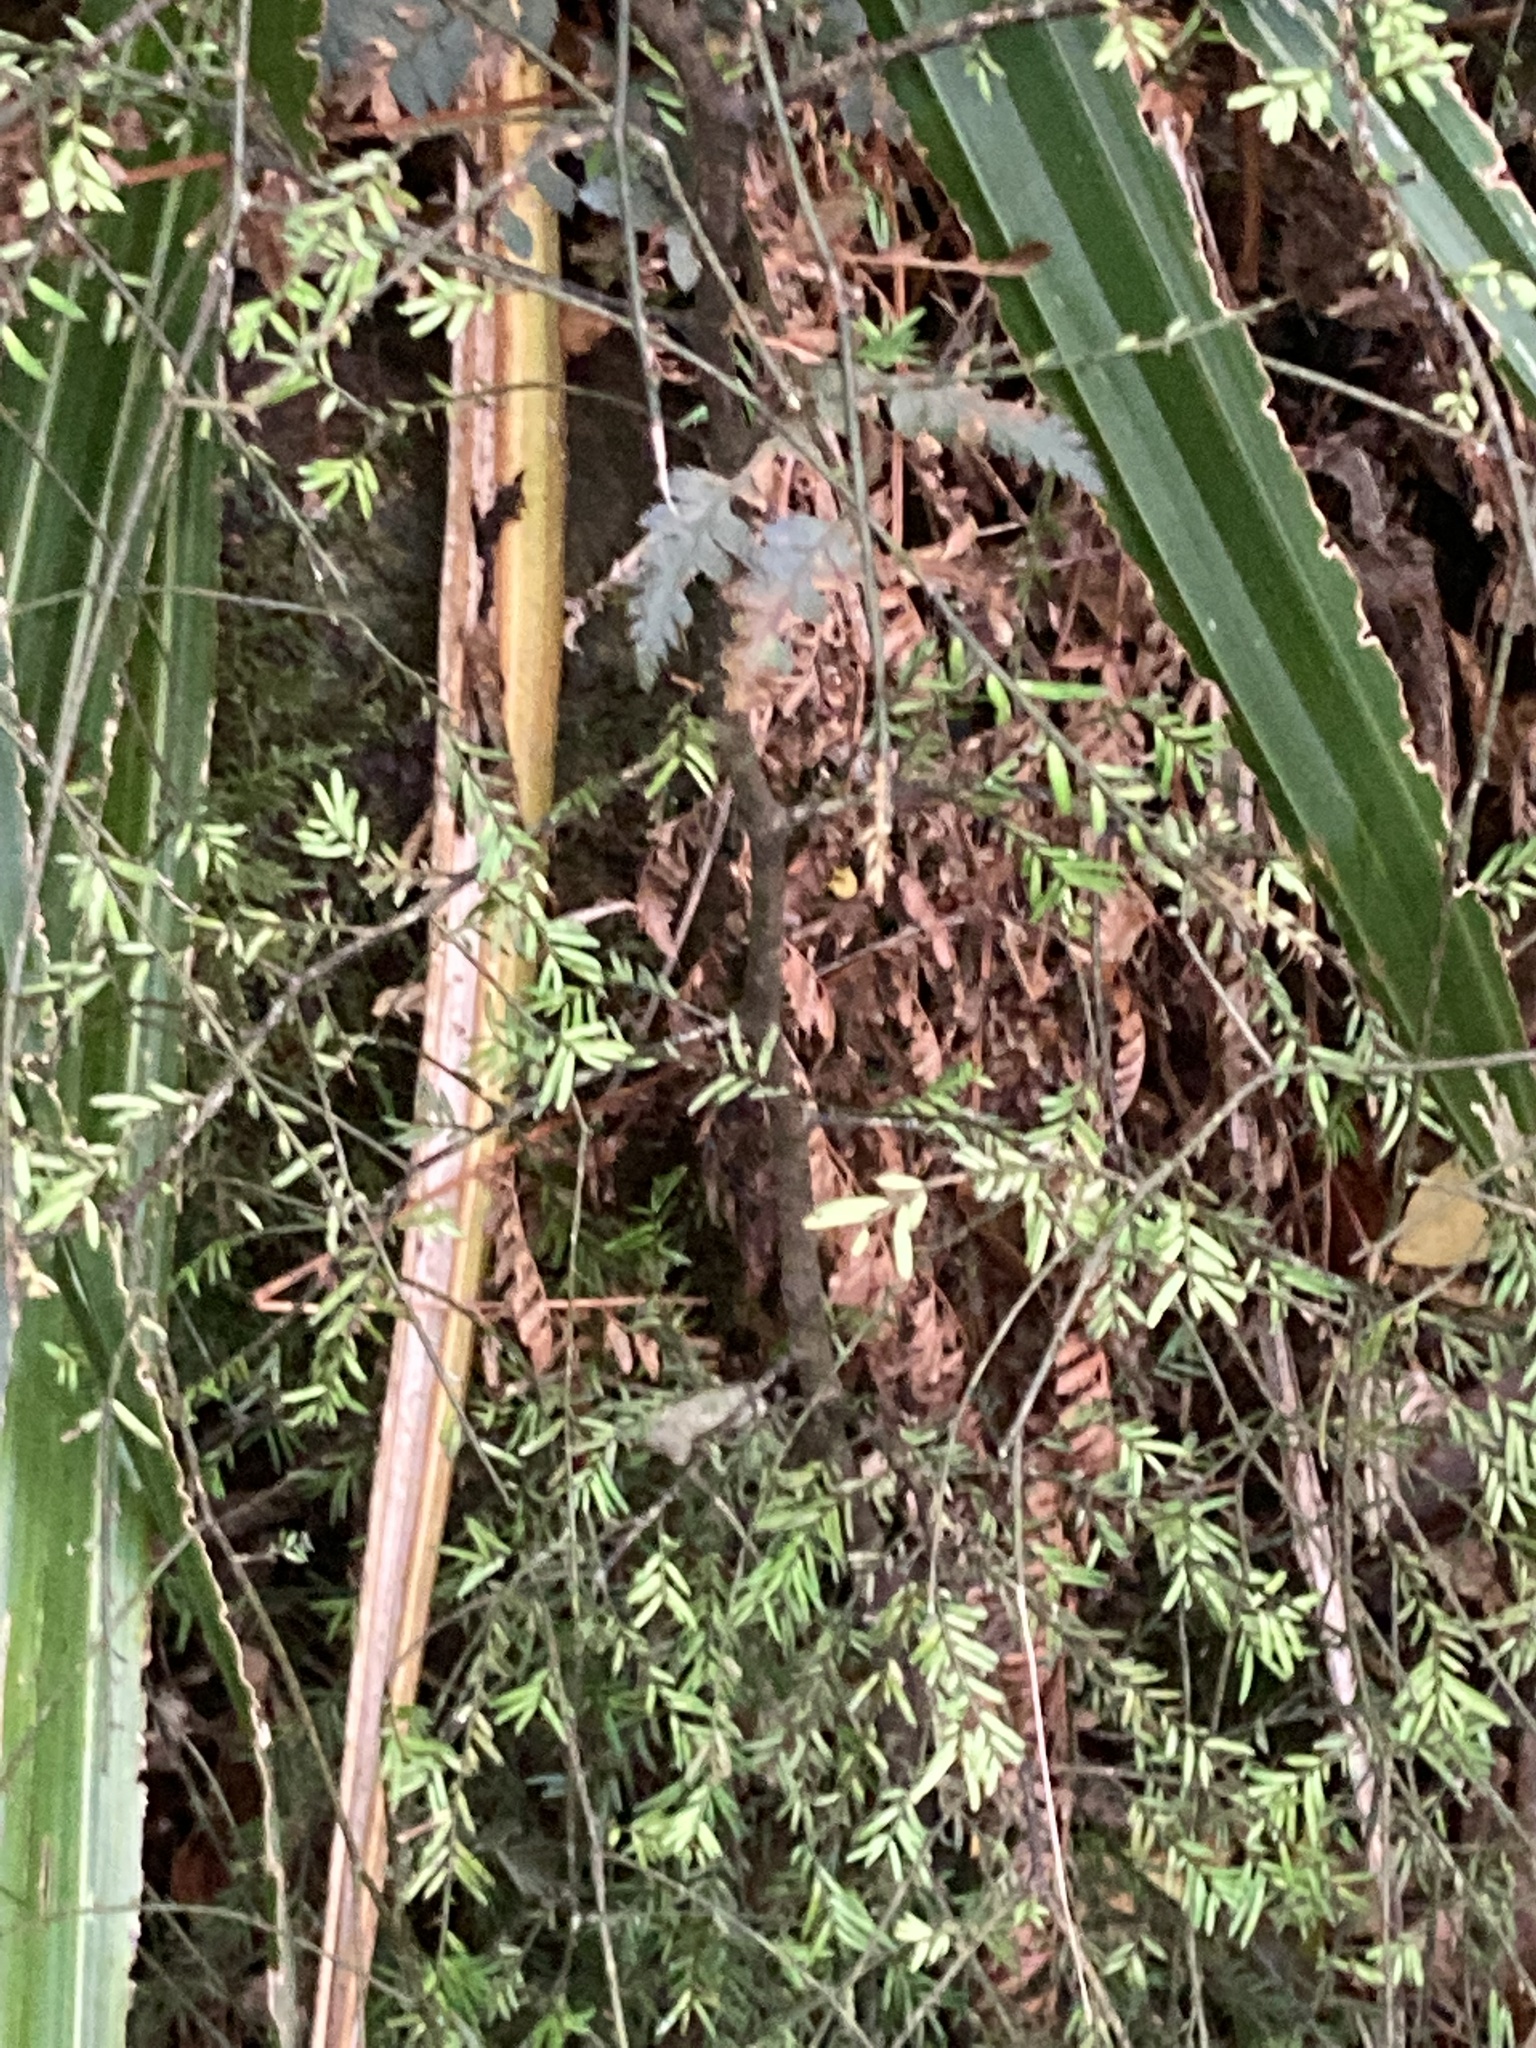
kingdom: Plantae
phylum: Tracheophyta
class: Pinopsida
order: Pinales
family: Podocarpaceae
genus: Prumnopitys
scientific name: Prumnopitys taxifolia
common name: Matai
